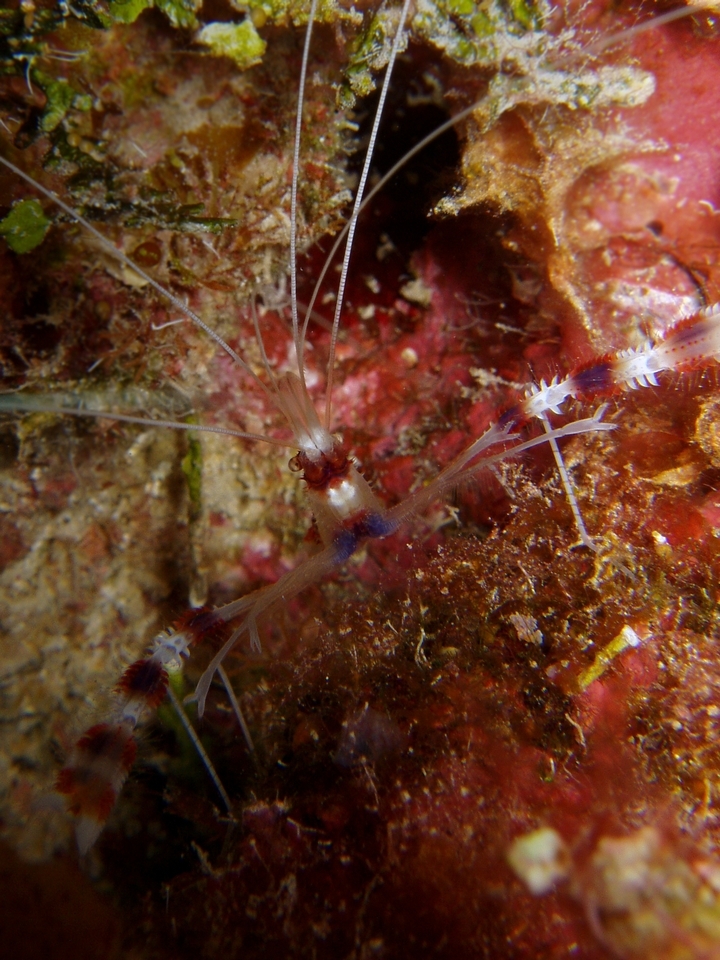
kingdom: Animalia
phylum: Arthropoda
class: Malacostraca
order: Decapoda
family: Stenopodidae
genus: Stenopus
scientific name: Stenopus hispidus
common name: Banded coral shrimp
